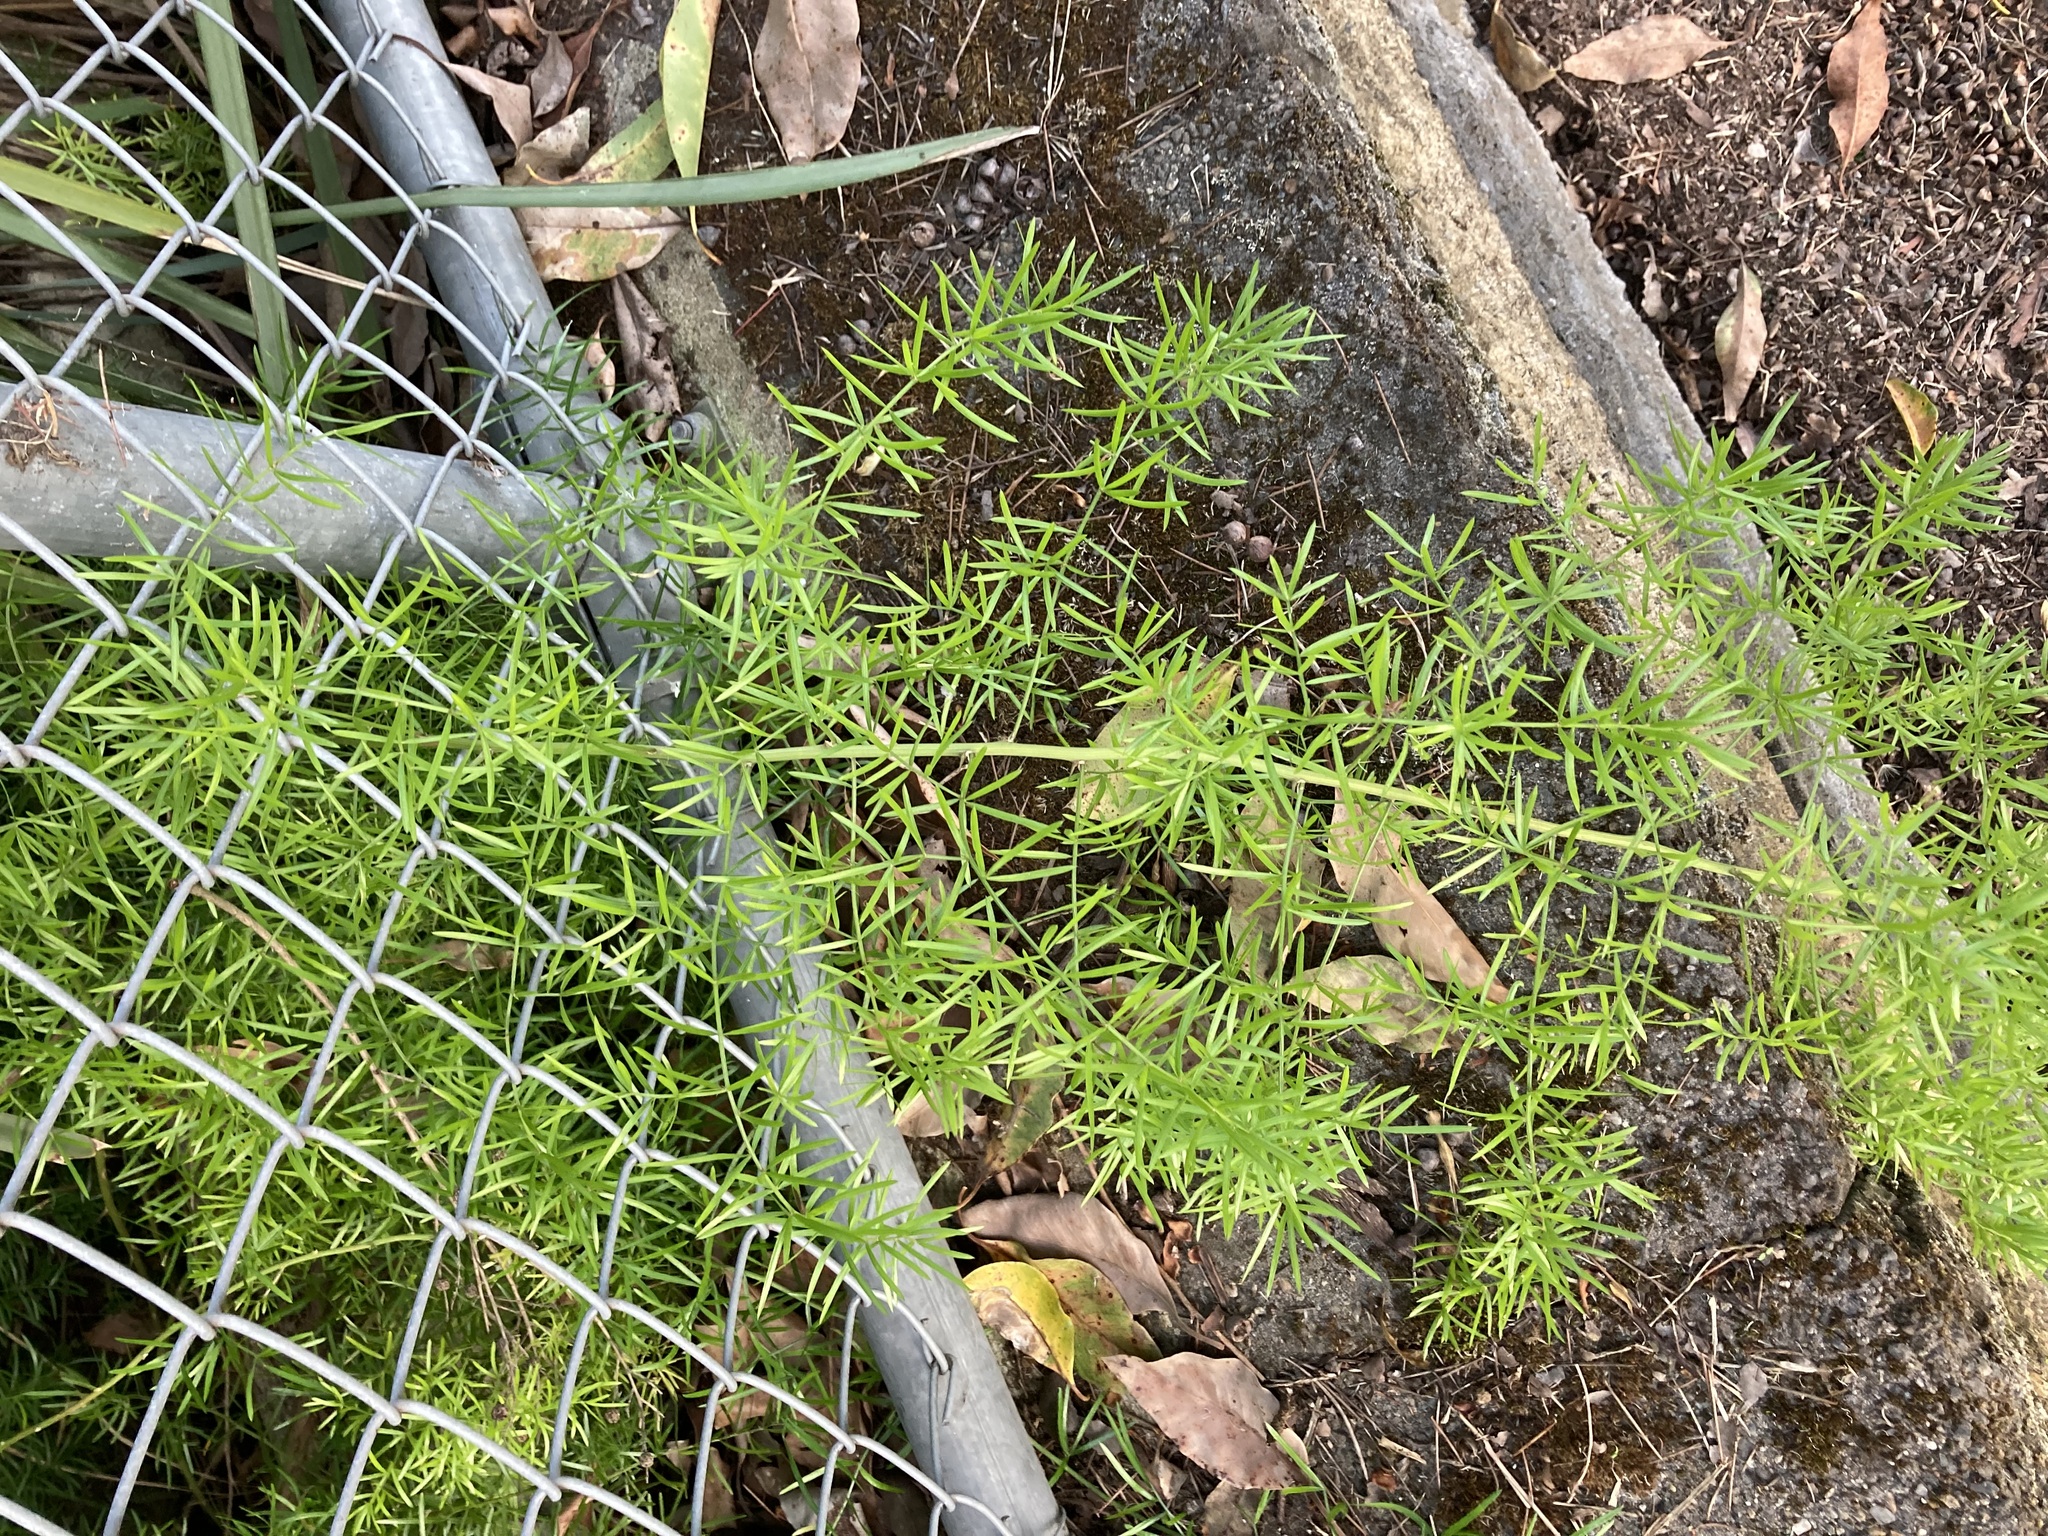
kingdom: Plantae
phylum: Tracheophyta
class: Liliopsida
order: Asparagales
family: Asparagaceae
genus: Asparagus
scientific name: Asparagus aethiopicus
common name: Sprenger's asparagus fern
